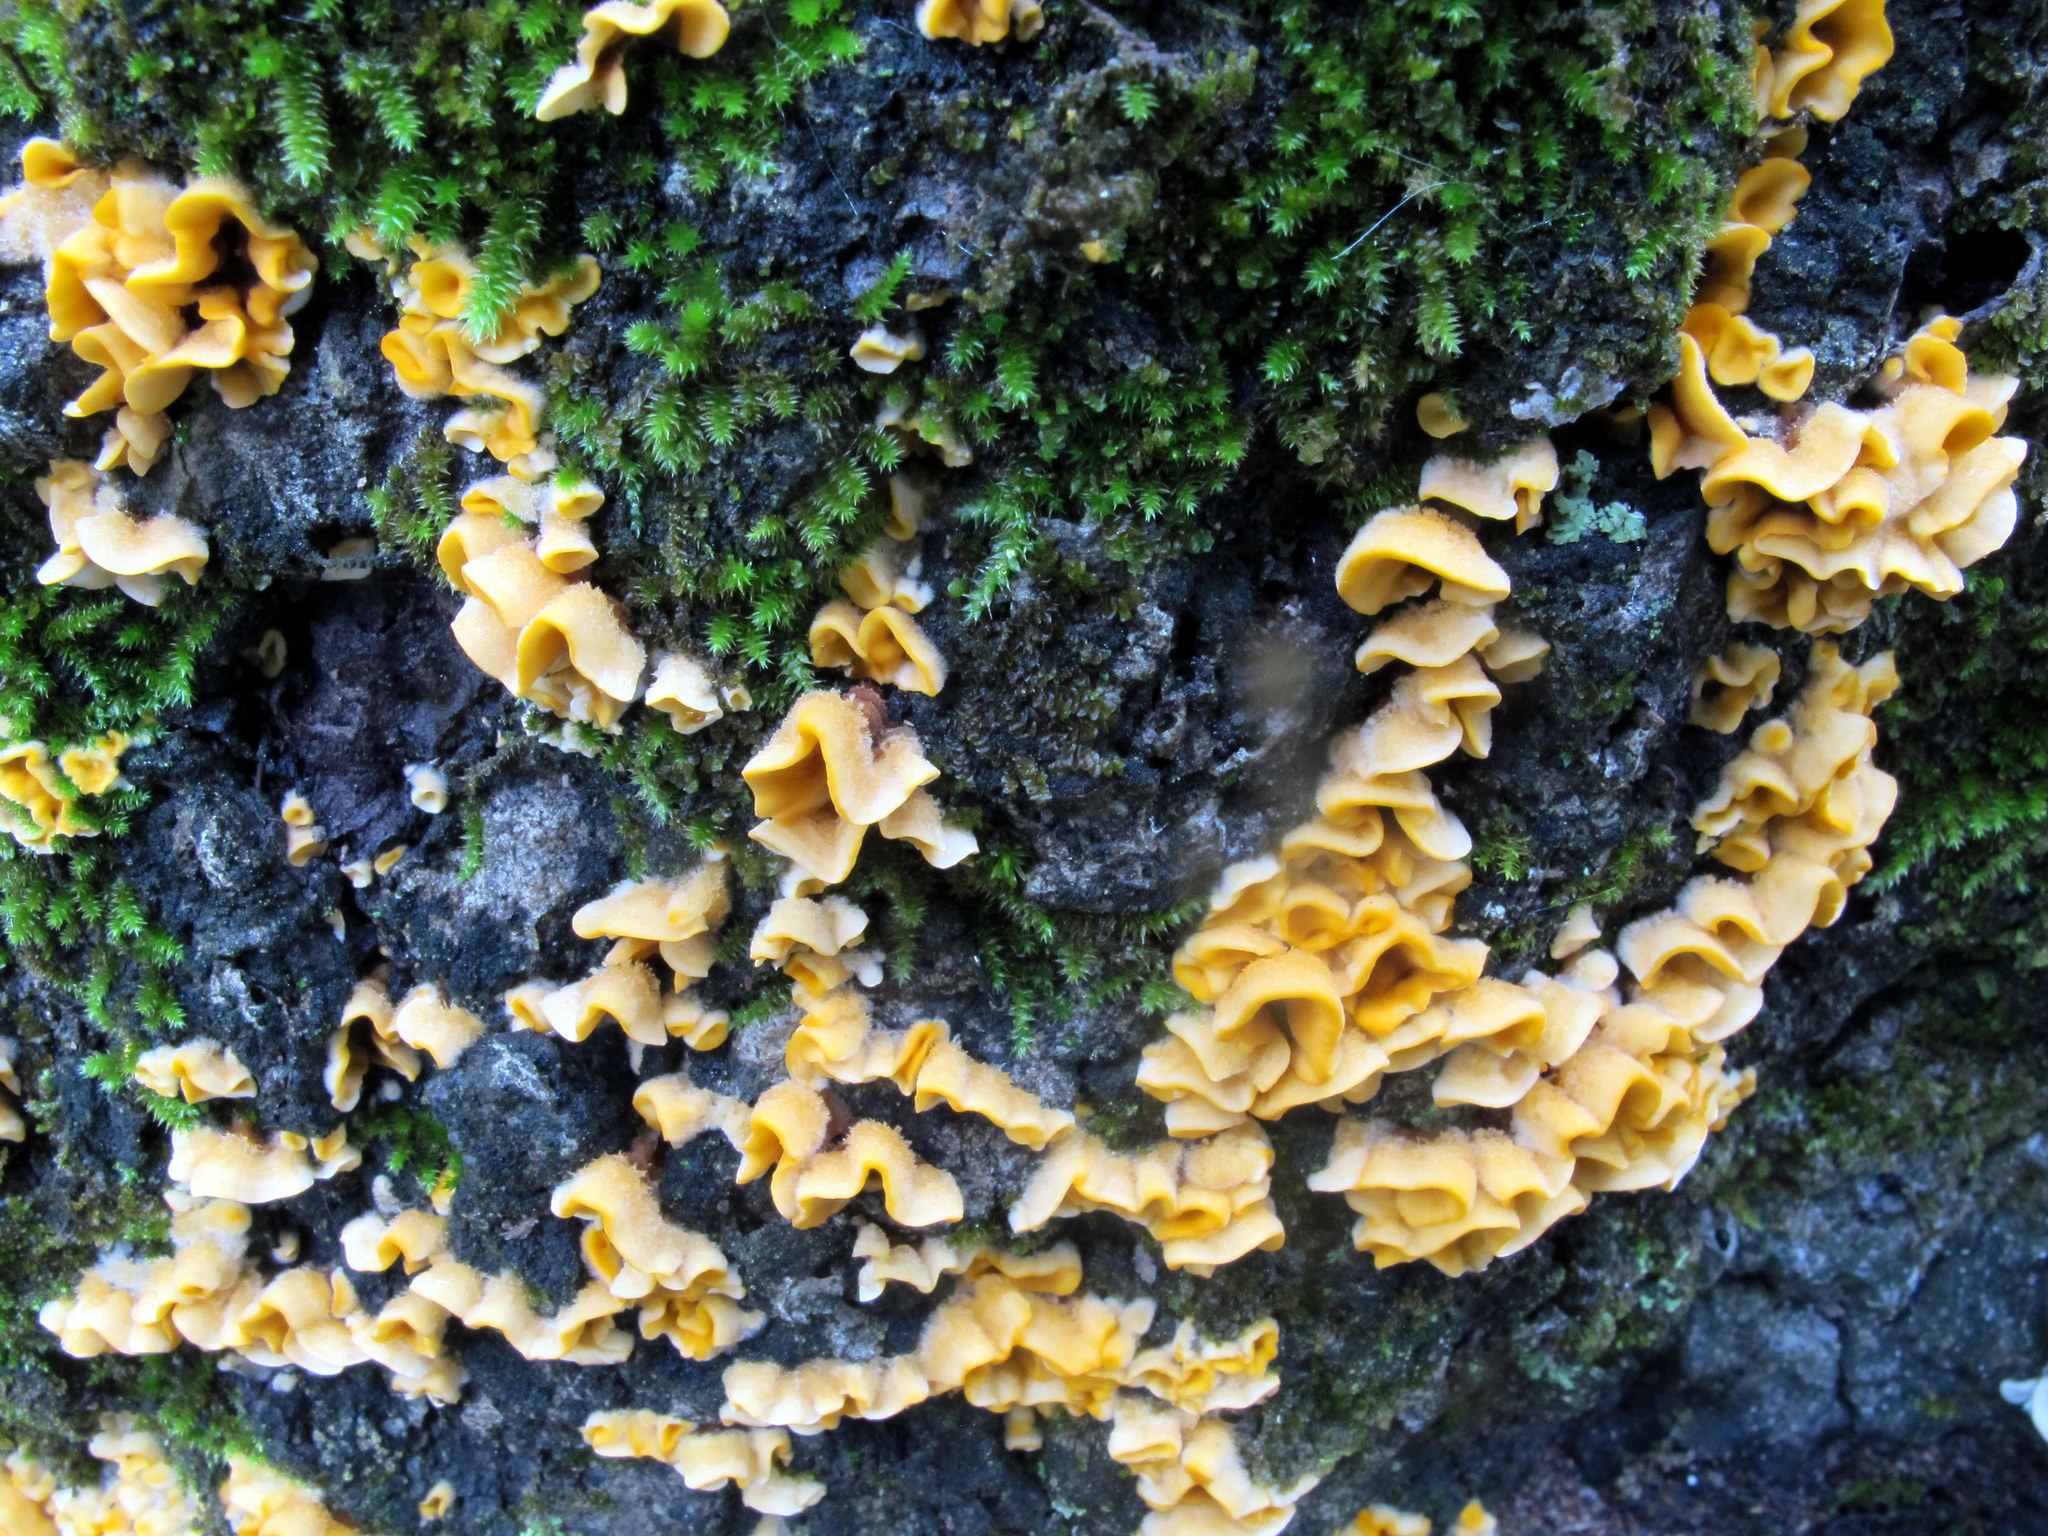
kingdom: Fungi
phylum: Basidiomycota
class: Agaricomycetes
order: Russulales
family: Stereaceae
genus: Stereum
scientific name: Stereum complicatum
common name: Crowded parchment
